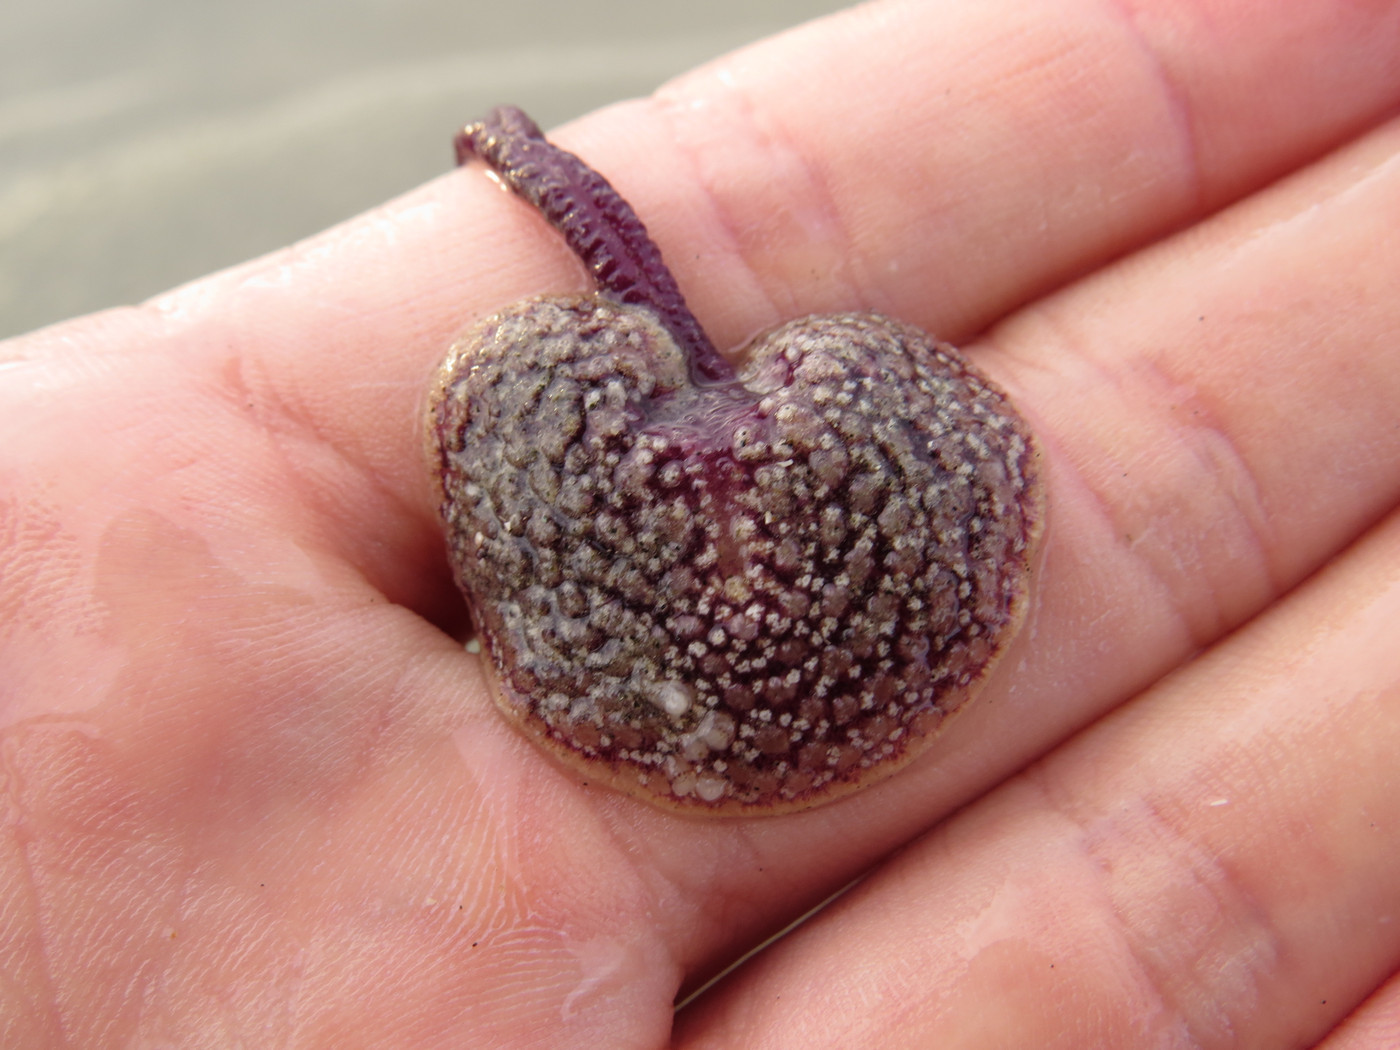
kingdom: Animalia
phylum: Cnidaria
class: Anthozoa
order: Scleralcyonacea
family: Renillidae
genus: Renilla
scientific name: Renilla reniformis
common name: Sea pansy
